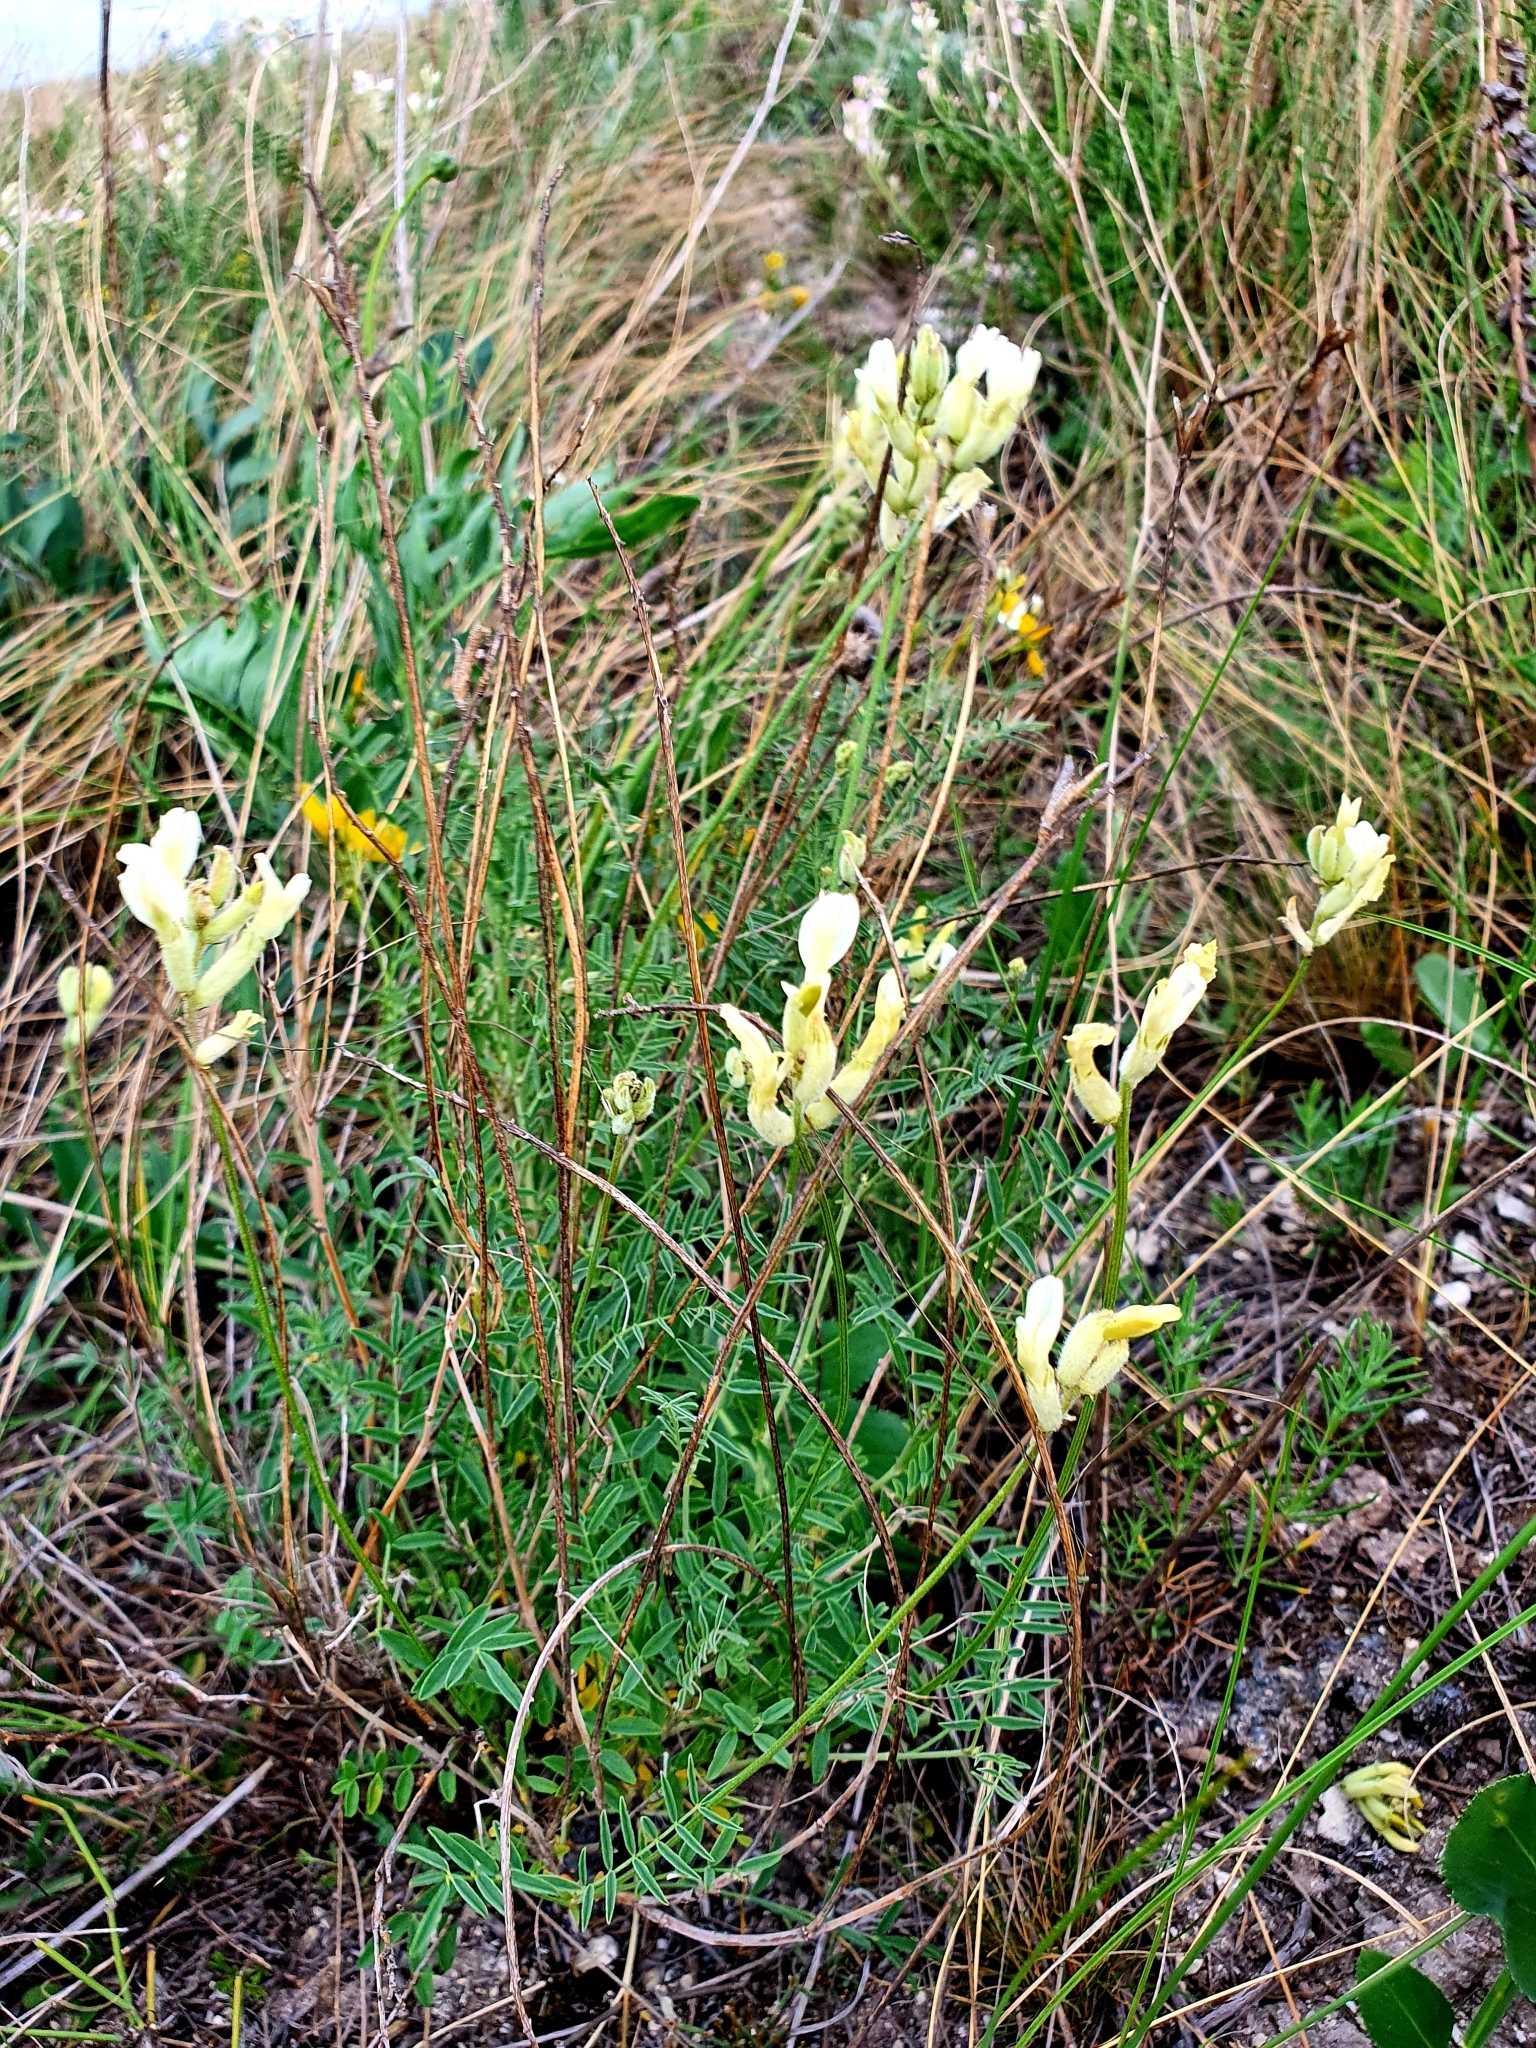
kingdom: Plantae
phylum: Tracheophyta
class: Magnoliopsida
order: Fabales
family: Fabaceae
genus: Astragalus
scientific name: Astragalus zingeri
